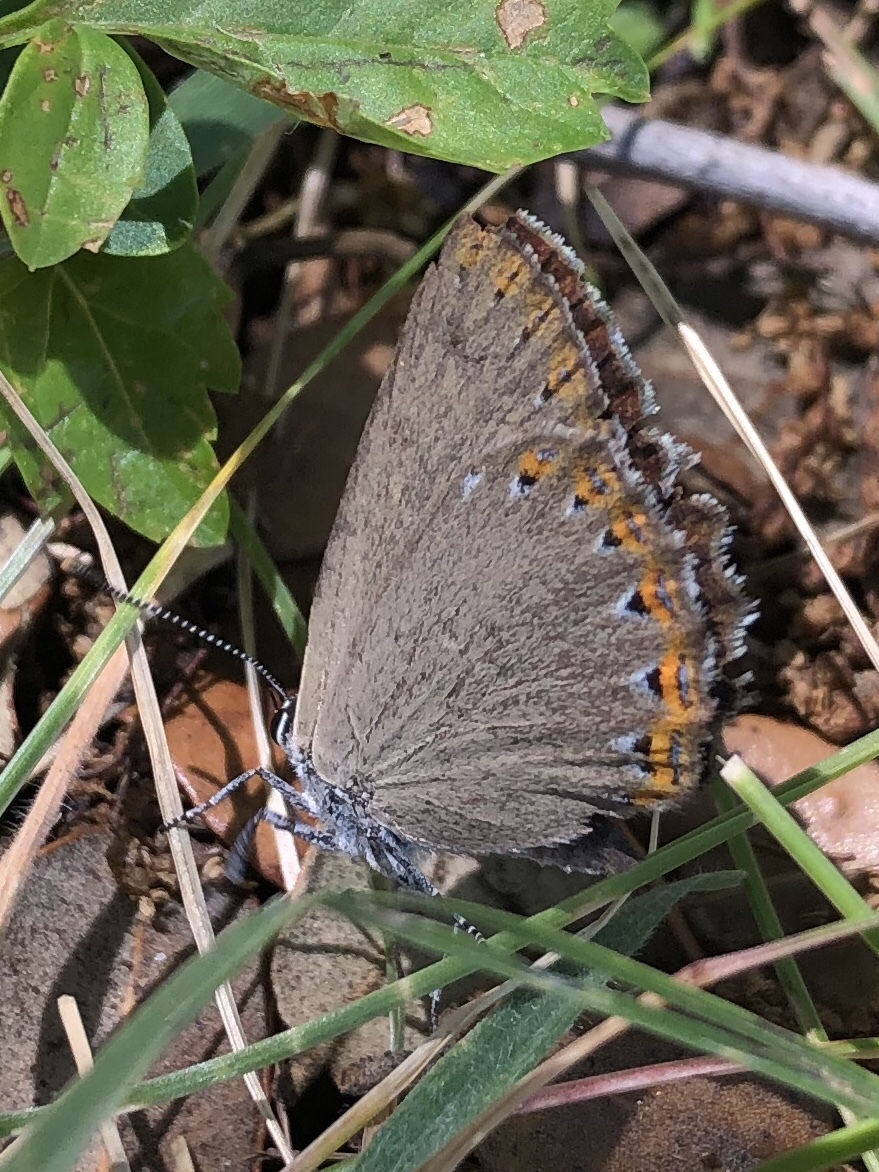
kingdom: Animalia
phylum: Arthropoda
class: Insecta
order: Lepidoptera
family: Lycaenidae
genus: Laeosopis
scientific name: Laeosopis roboris
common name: Spanish purple hairstreak
